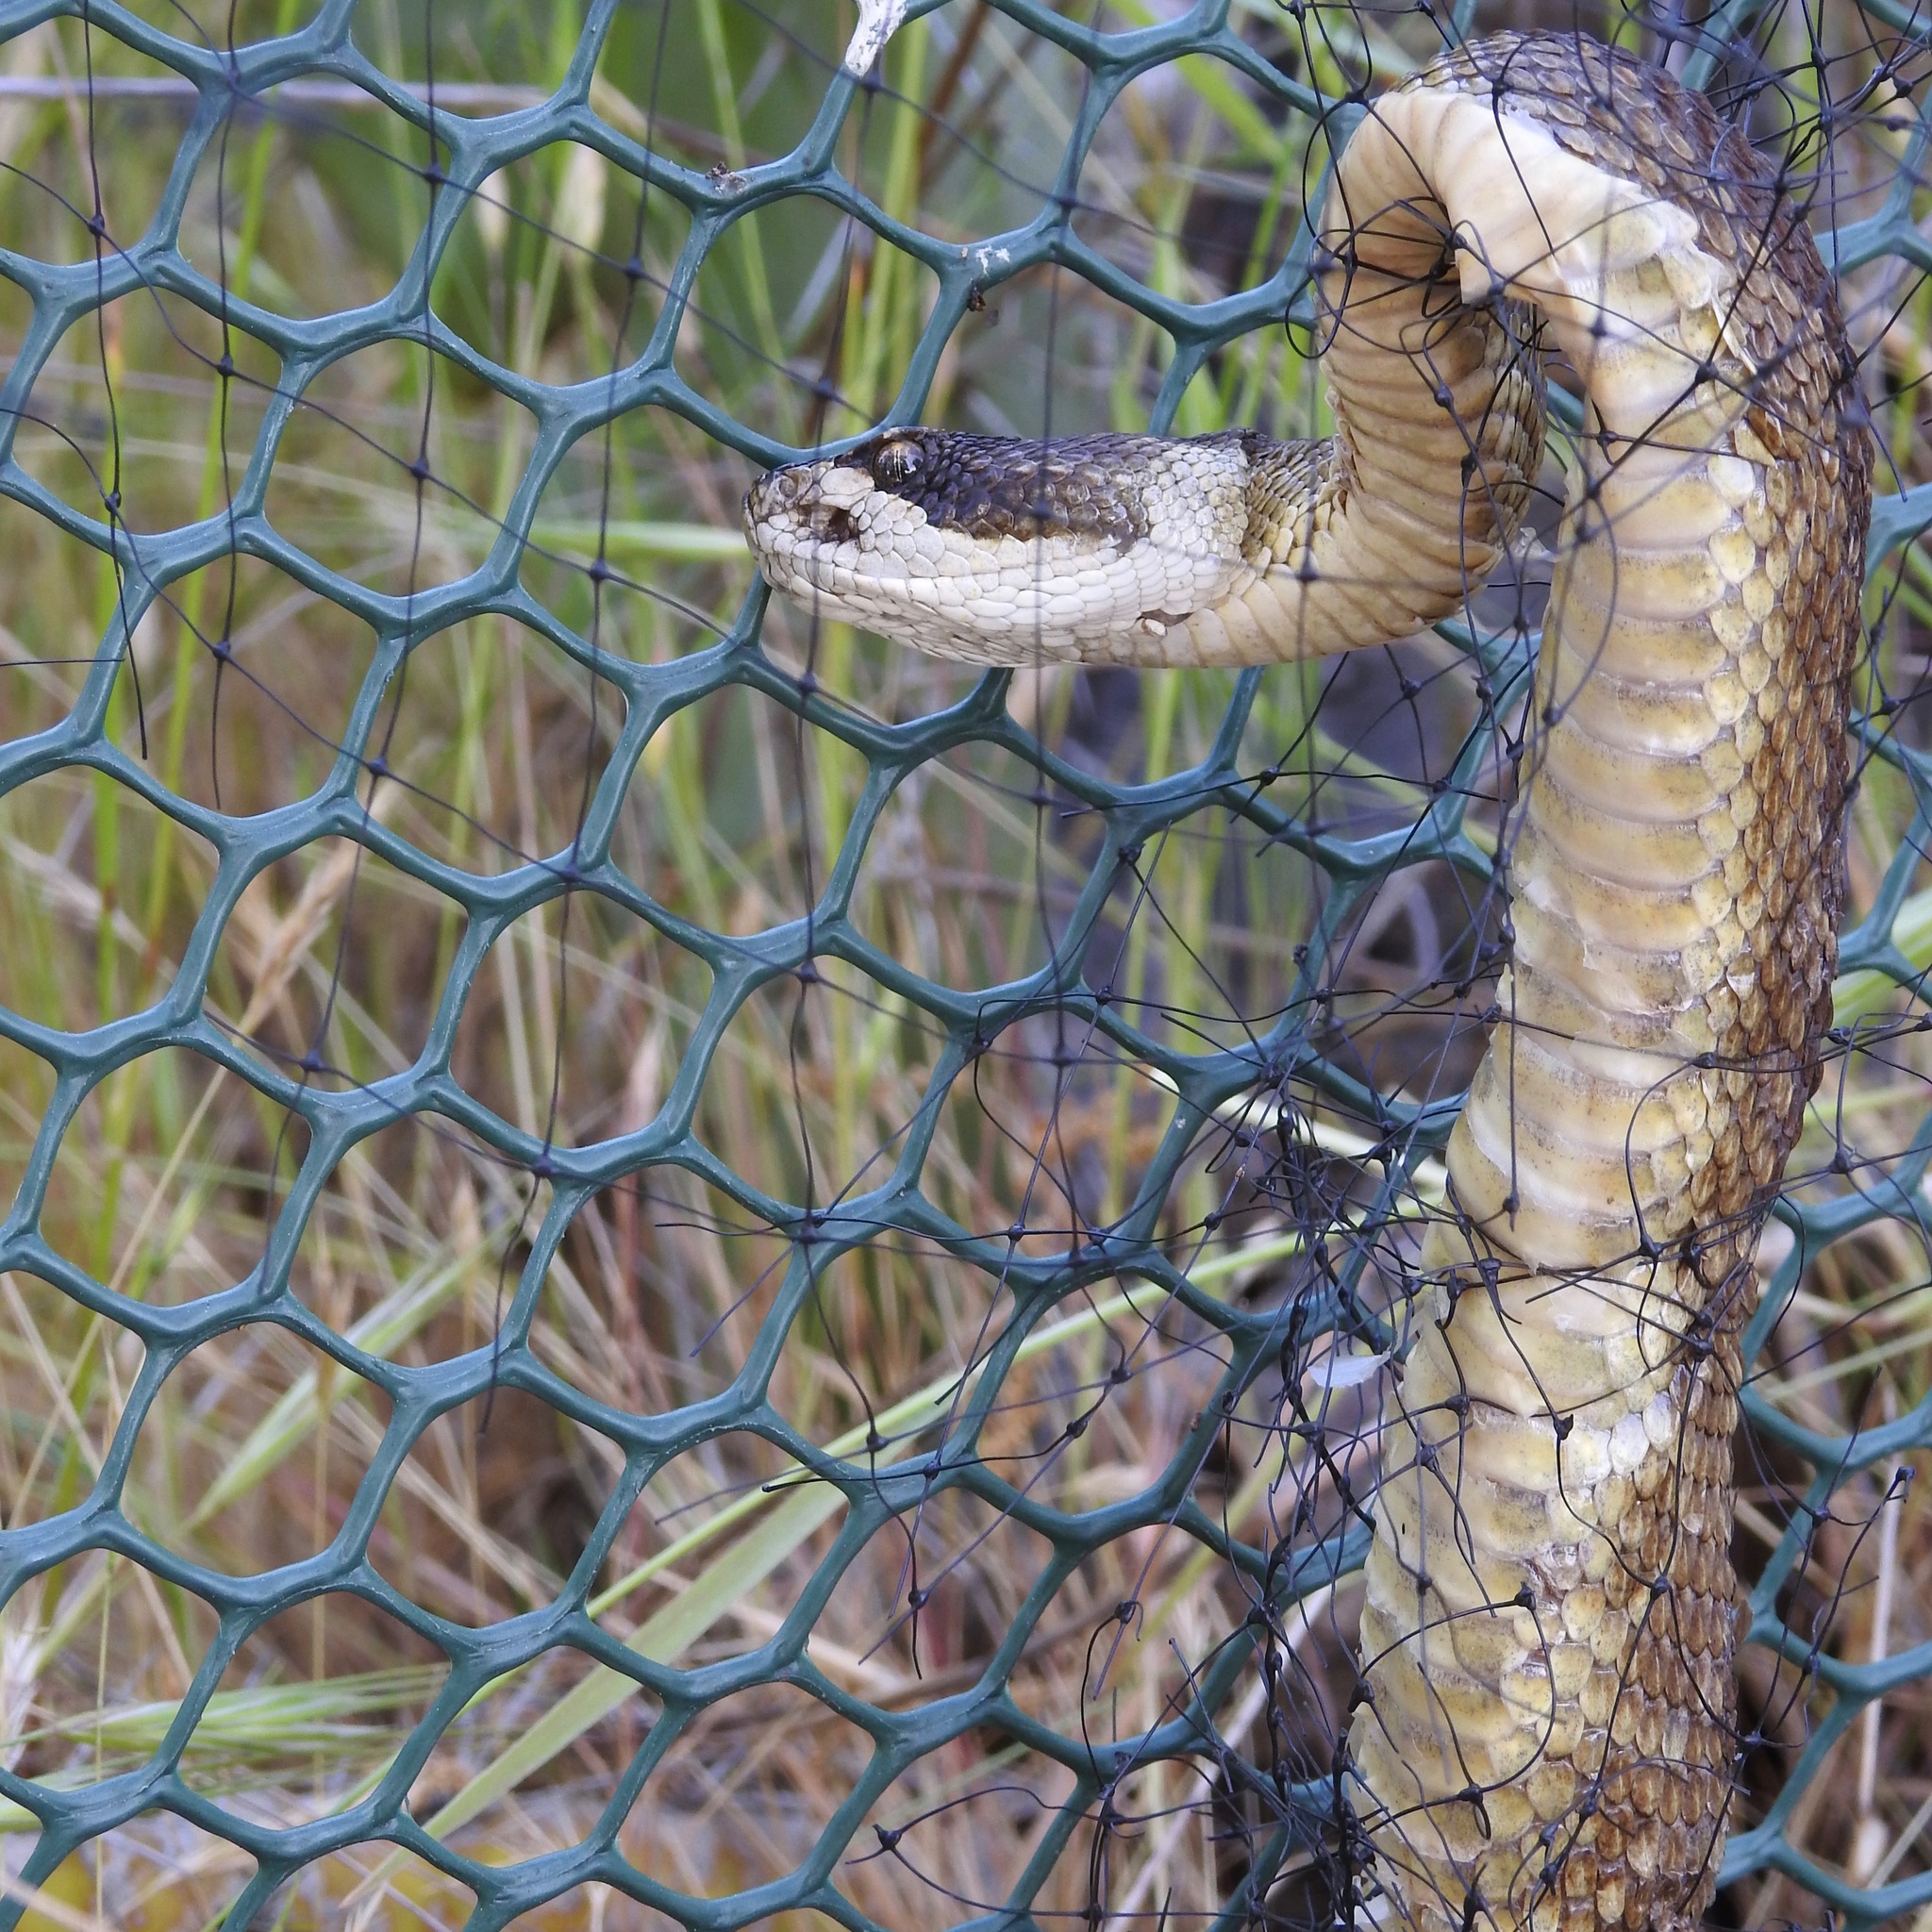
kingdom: Animalia
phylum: Chordata
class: Squamata
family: Viperidae
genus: Crotalus
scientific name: Crotalus oreganus
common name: Abyssus
